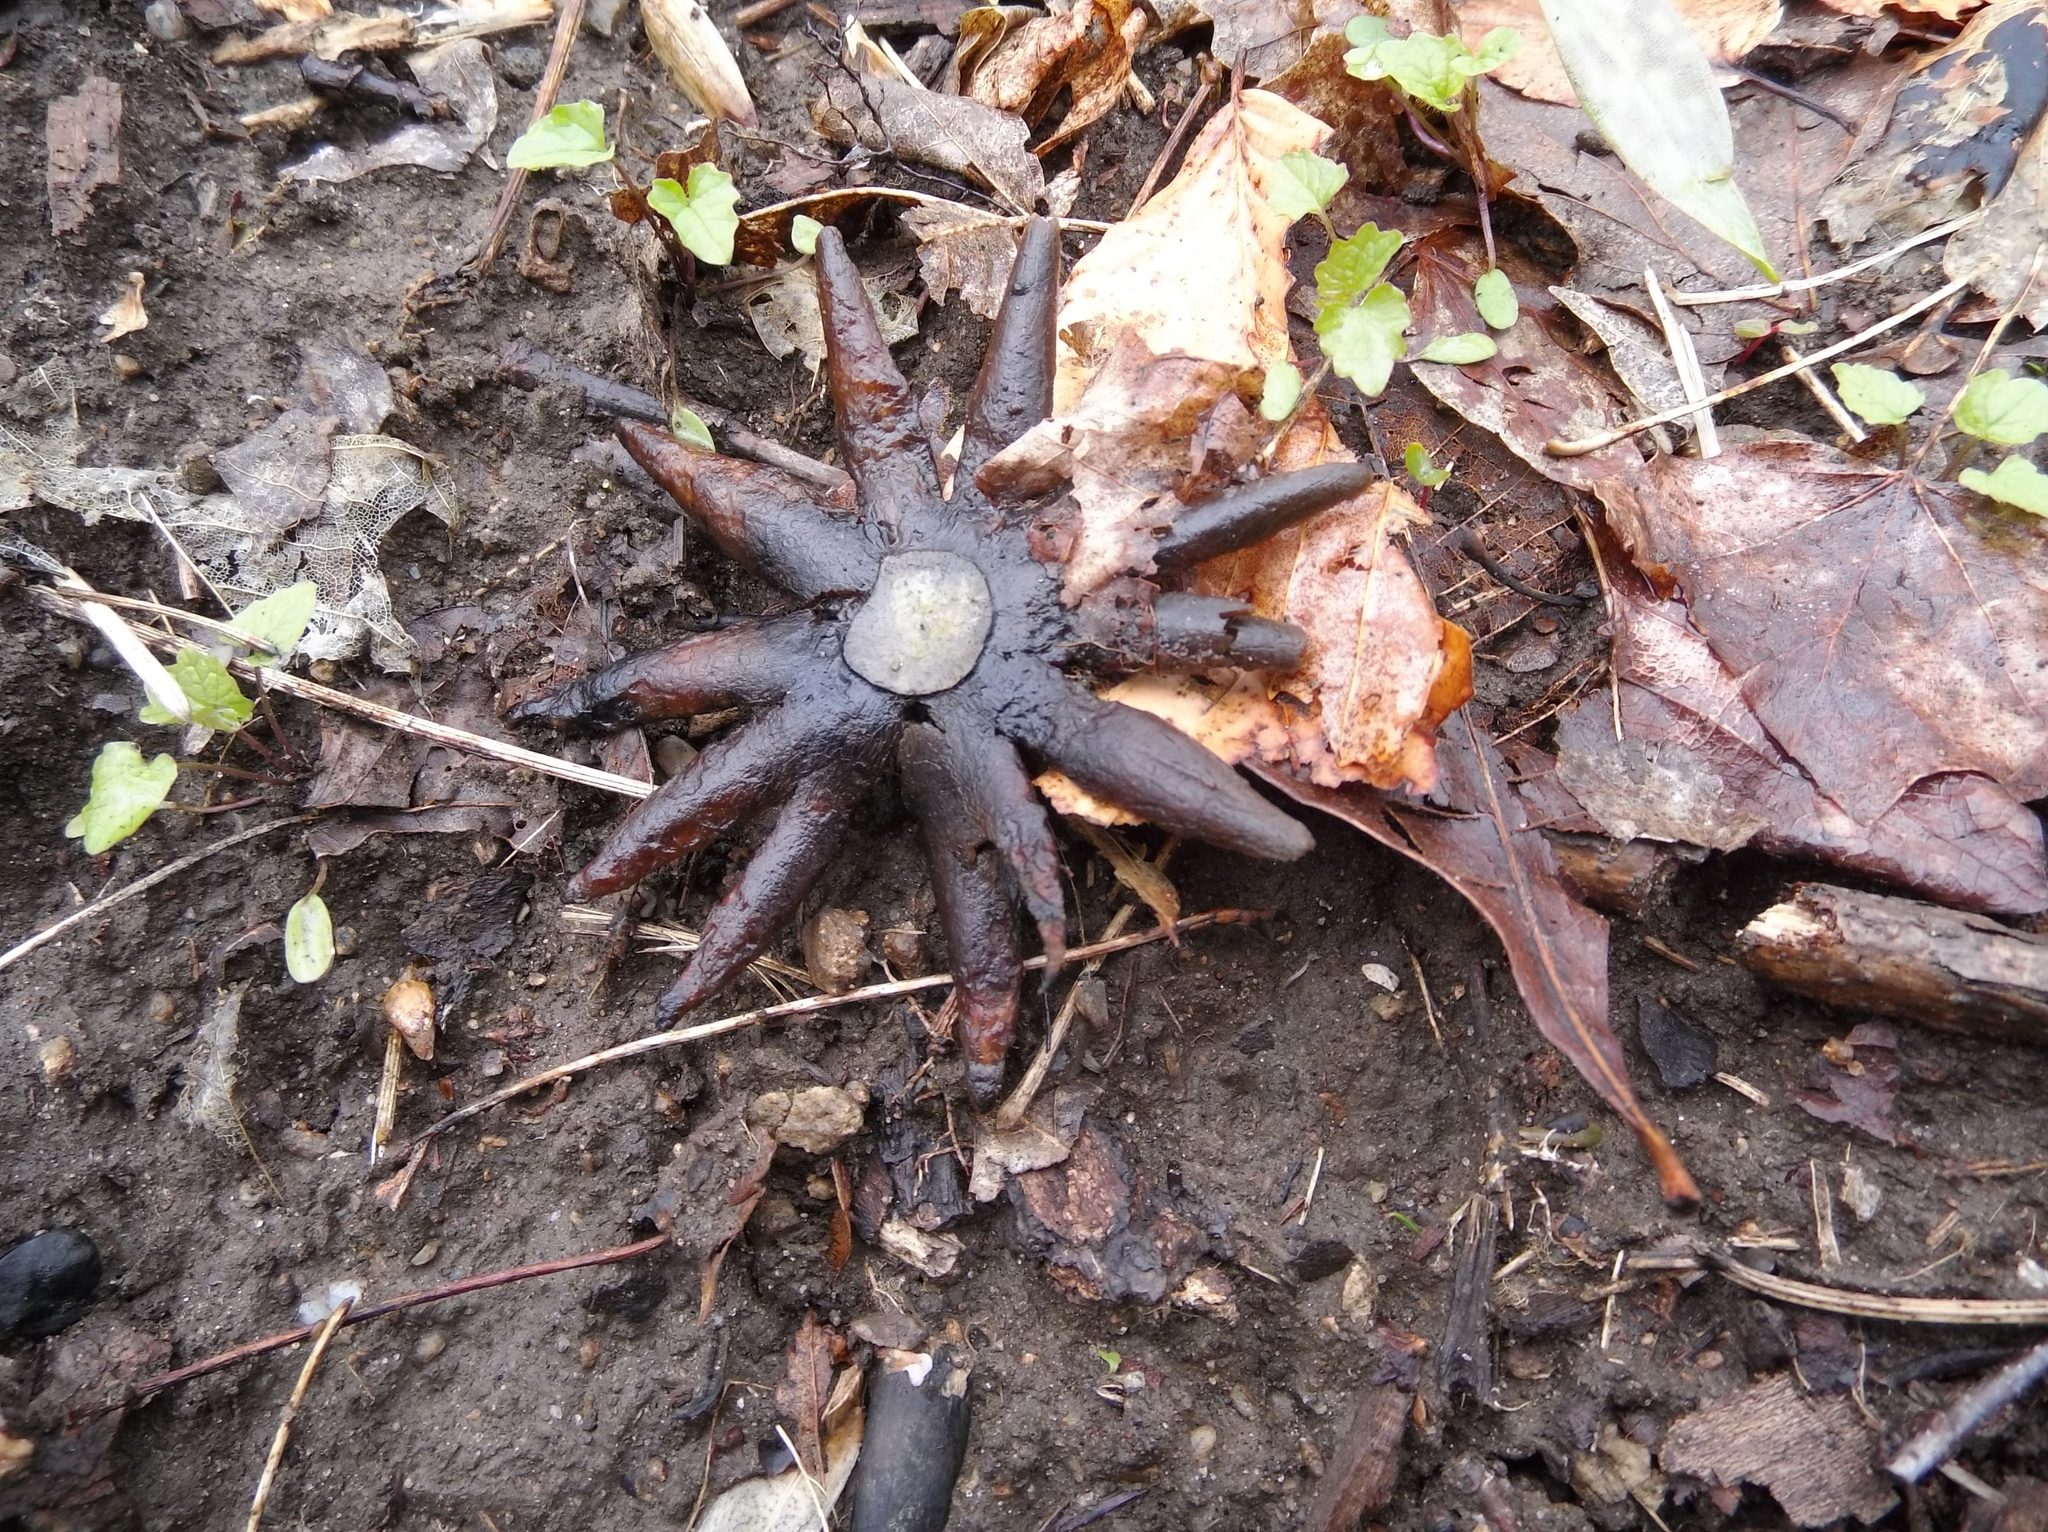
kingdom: Fungi
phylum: Basidiomycota
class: Agaricomycetes
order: Boletales
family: Diplocystidiaceae
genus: Astraeus
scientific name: Astraeus hygrometricus
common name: Barometer earthstar
